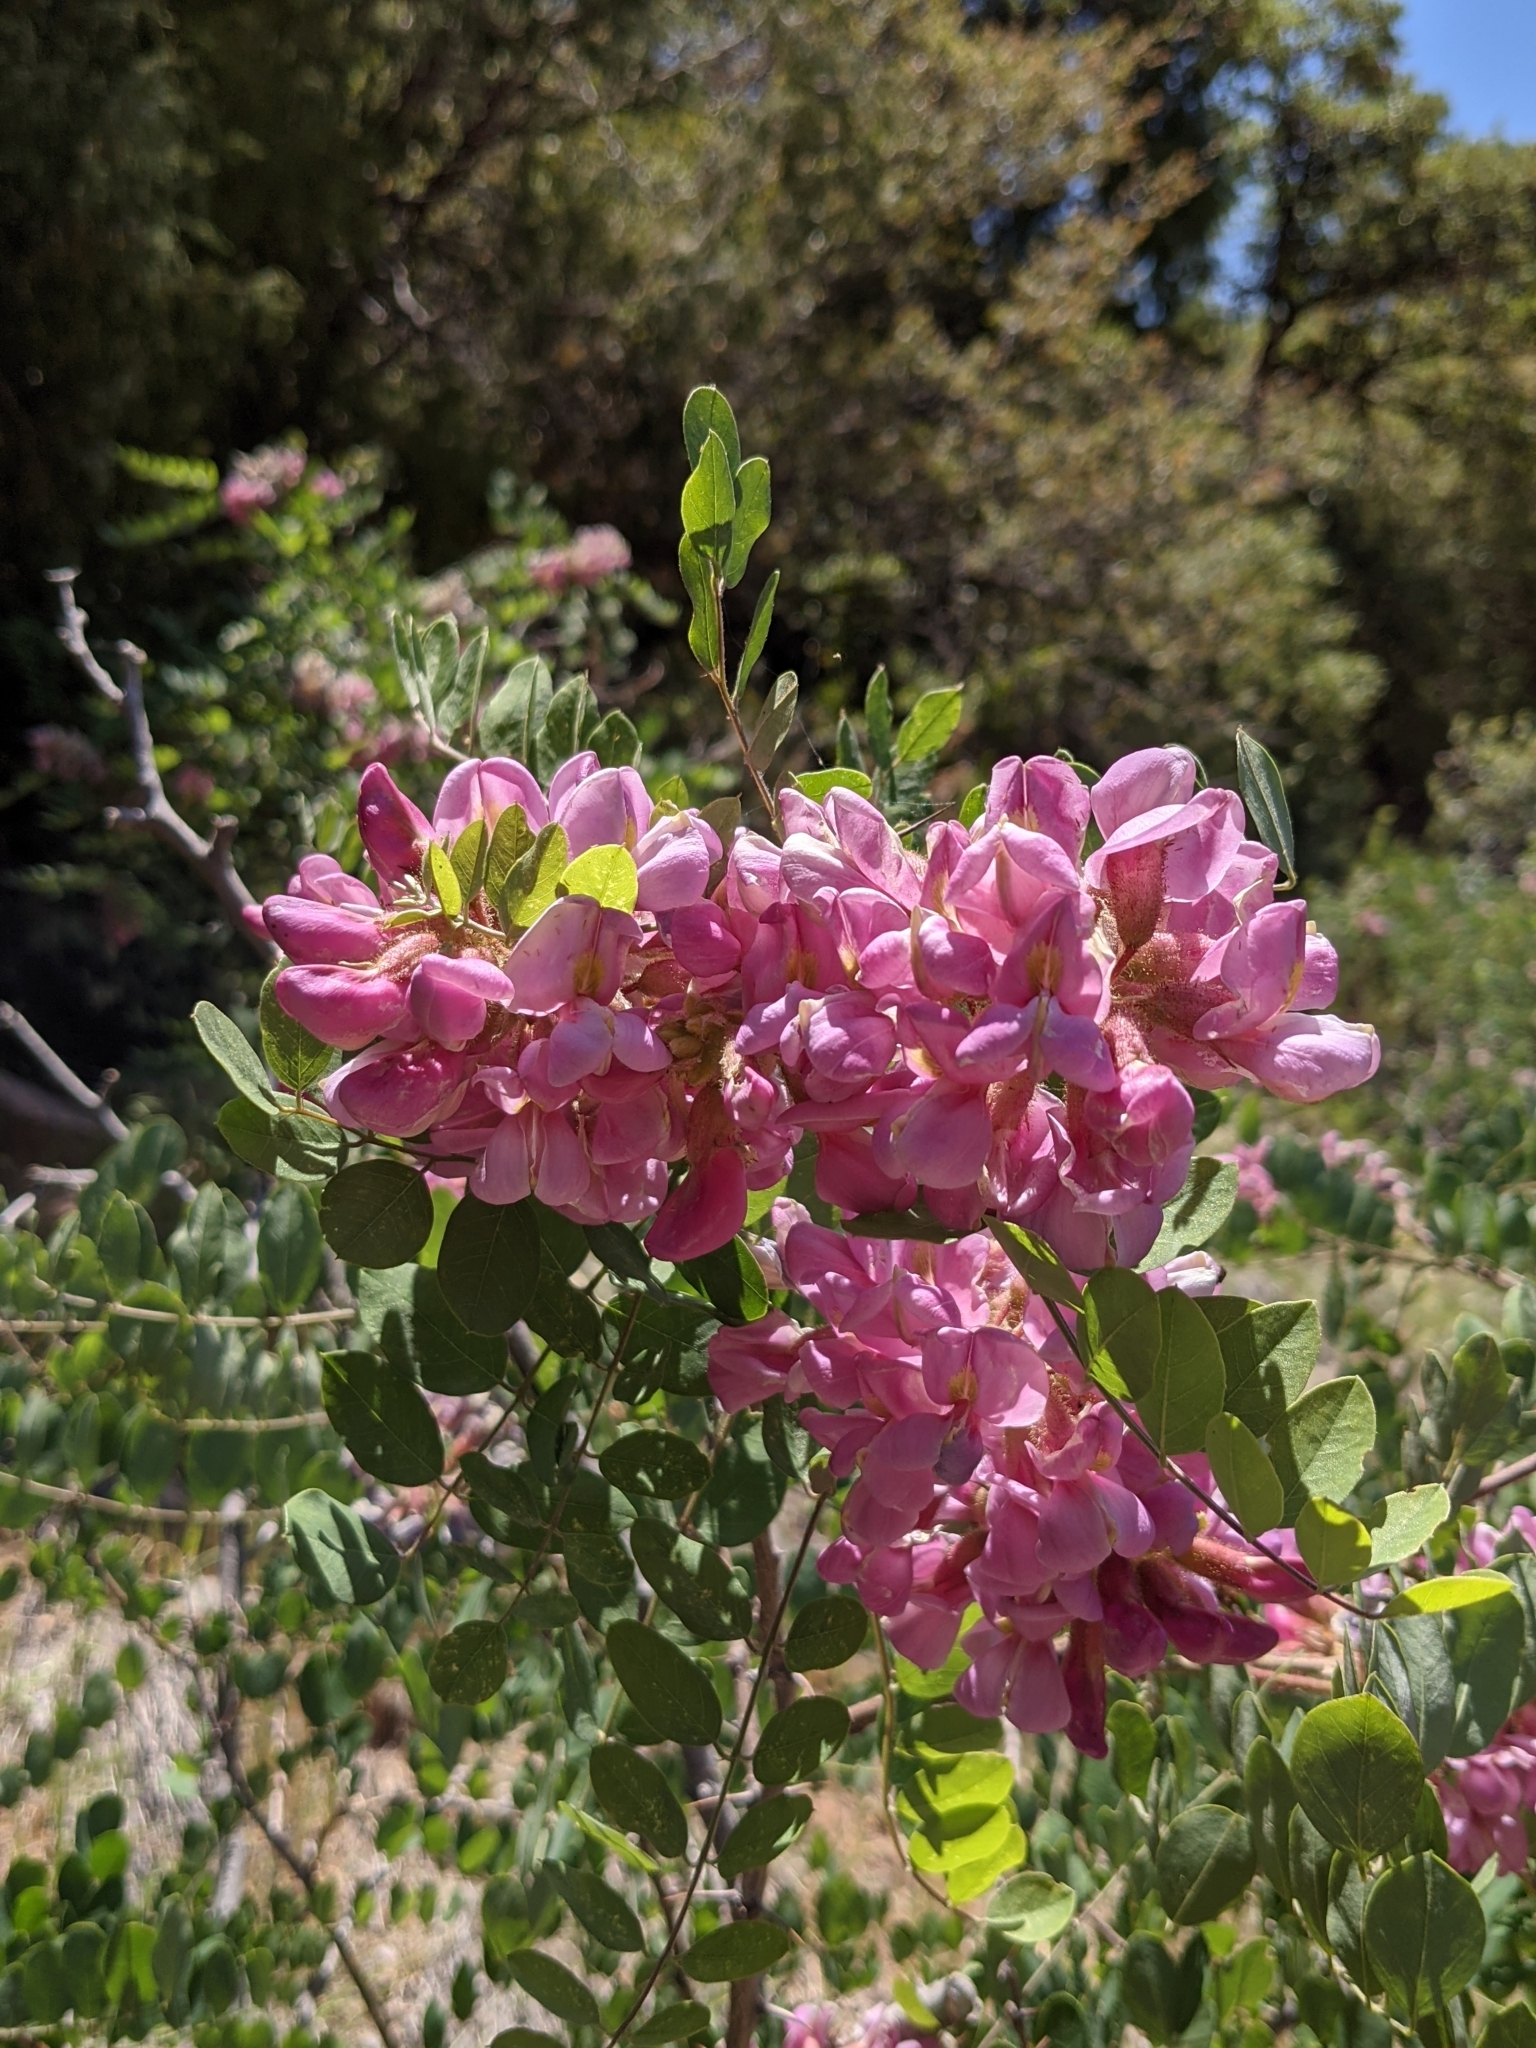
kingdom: Plantae
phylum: Tracheophyta
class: Magnoliopsida
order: Fabales
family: Fabaceae
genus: Robinia
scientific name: Robinia neomexicana
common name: New mexico locust
